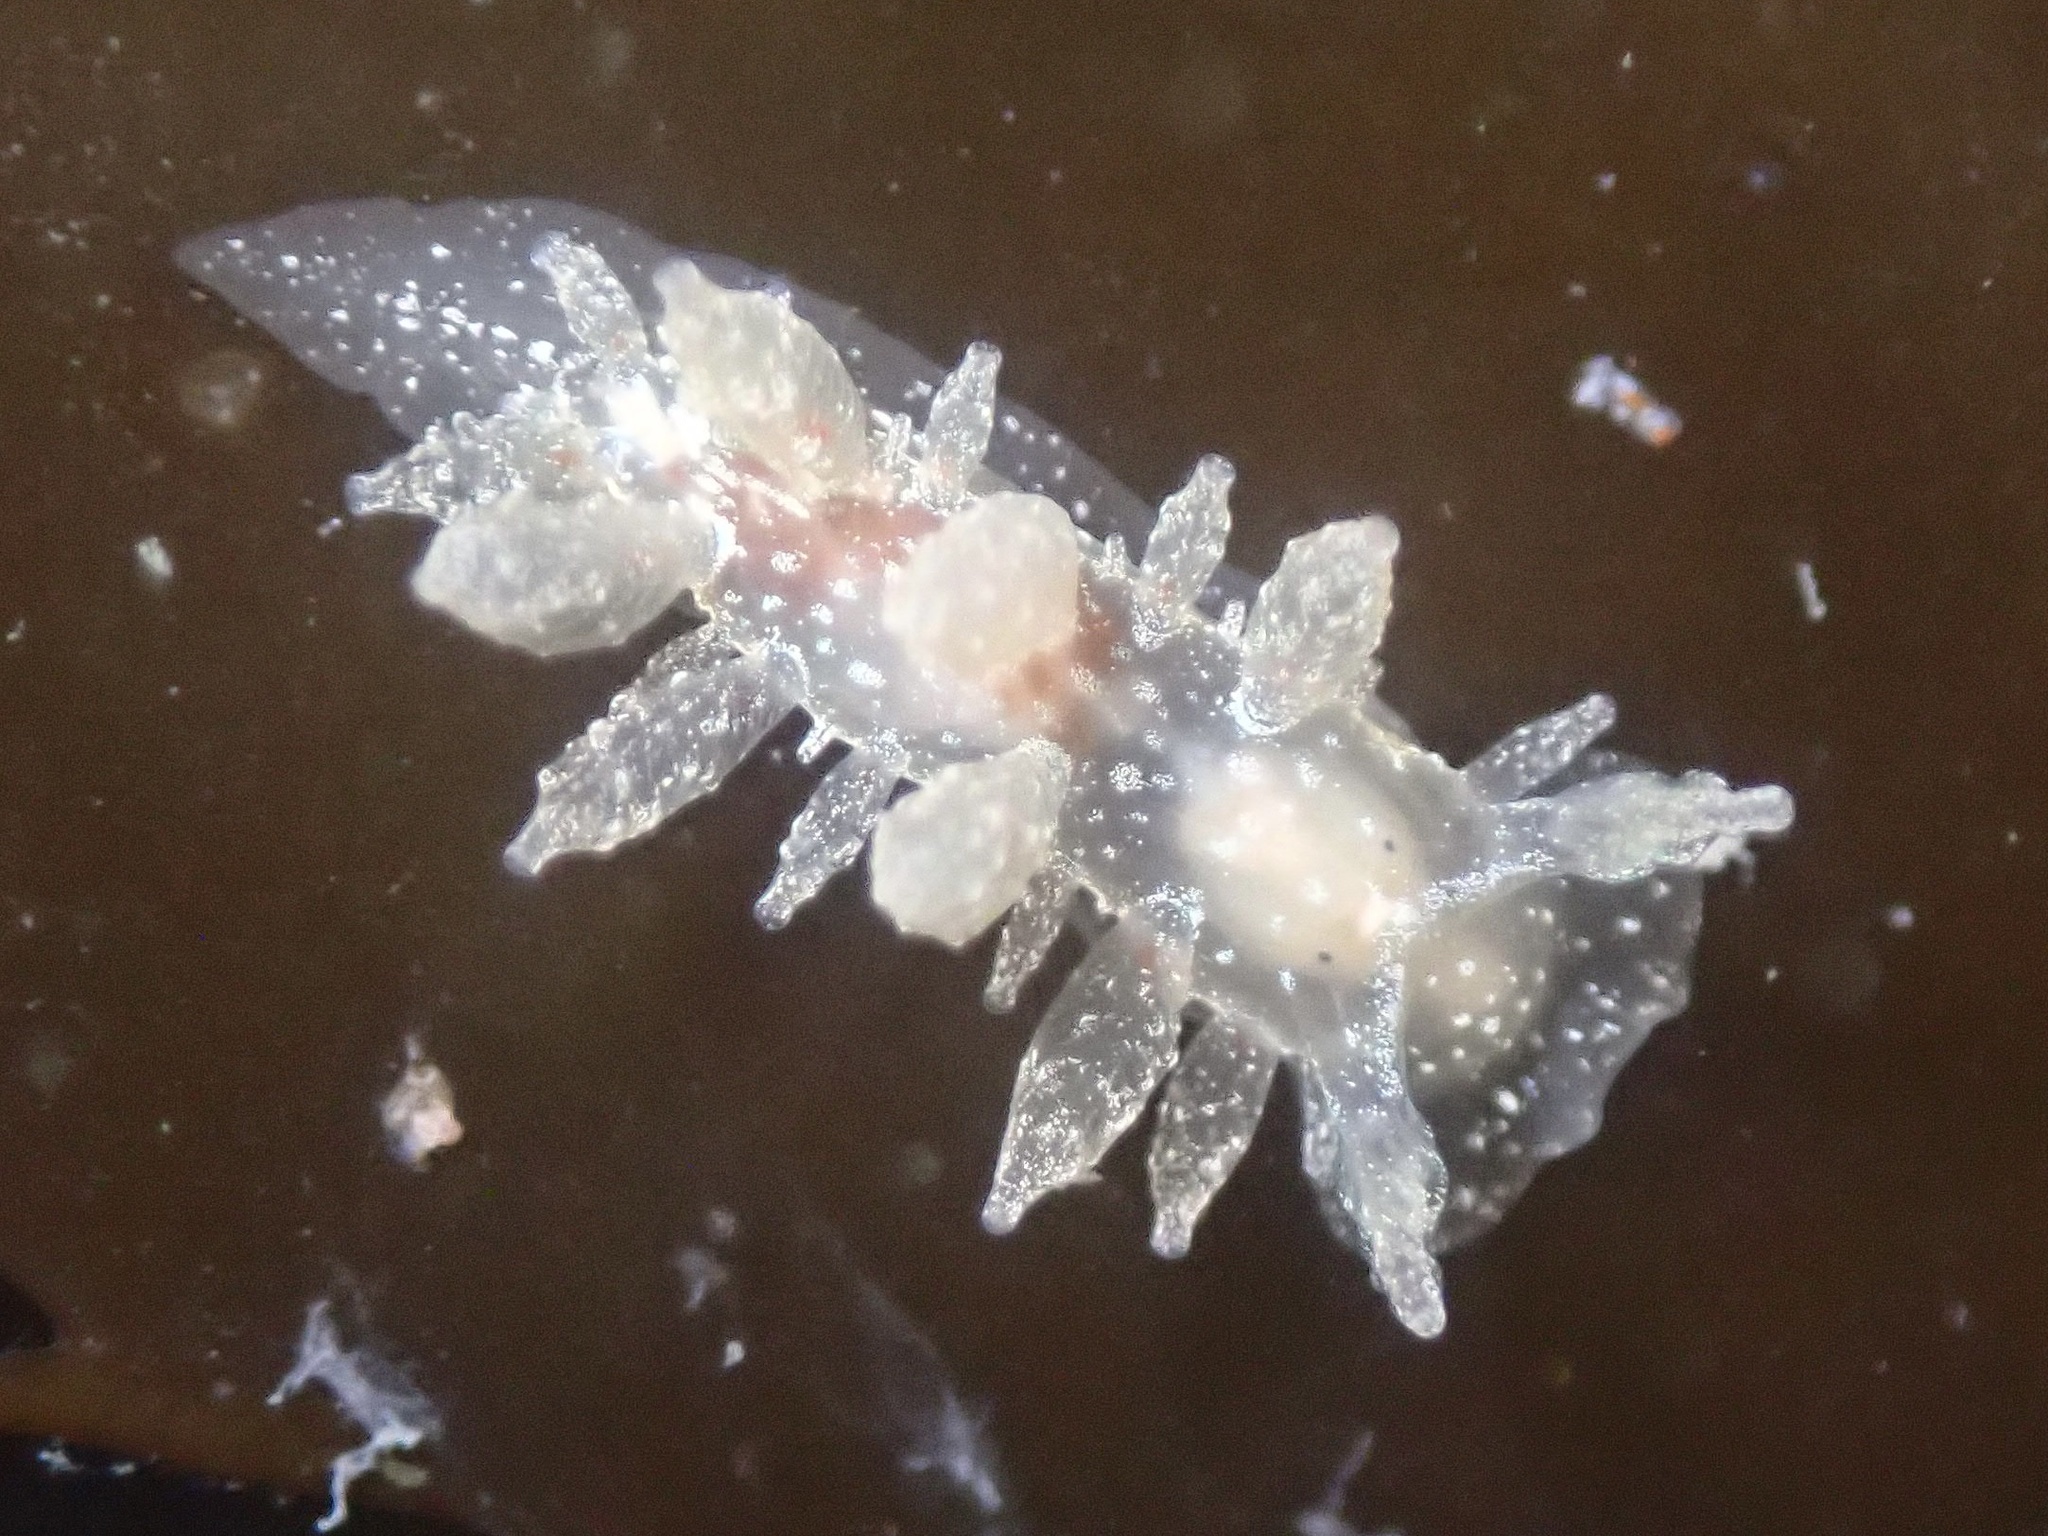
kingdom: Animalia
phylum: Mollusca
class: Gastropoda
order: Nudibranchia
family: Dironidae
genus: Dirona
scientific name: Dirona picta
